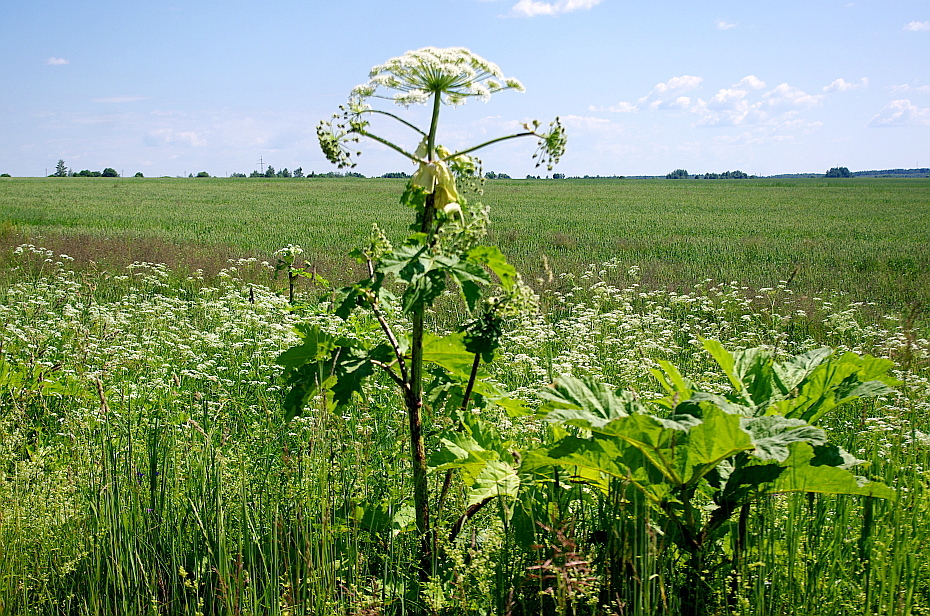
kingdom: Plantae
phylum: Tracheophyta
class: Magnoliopsida
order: Apiales
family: Apiaceae
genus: Heracleum
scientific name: Heracleum sosnowskyi
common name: Sosnowsky's hogweed
